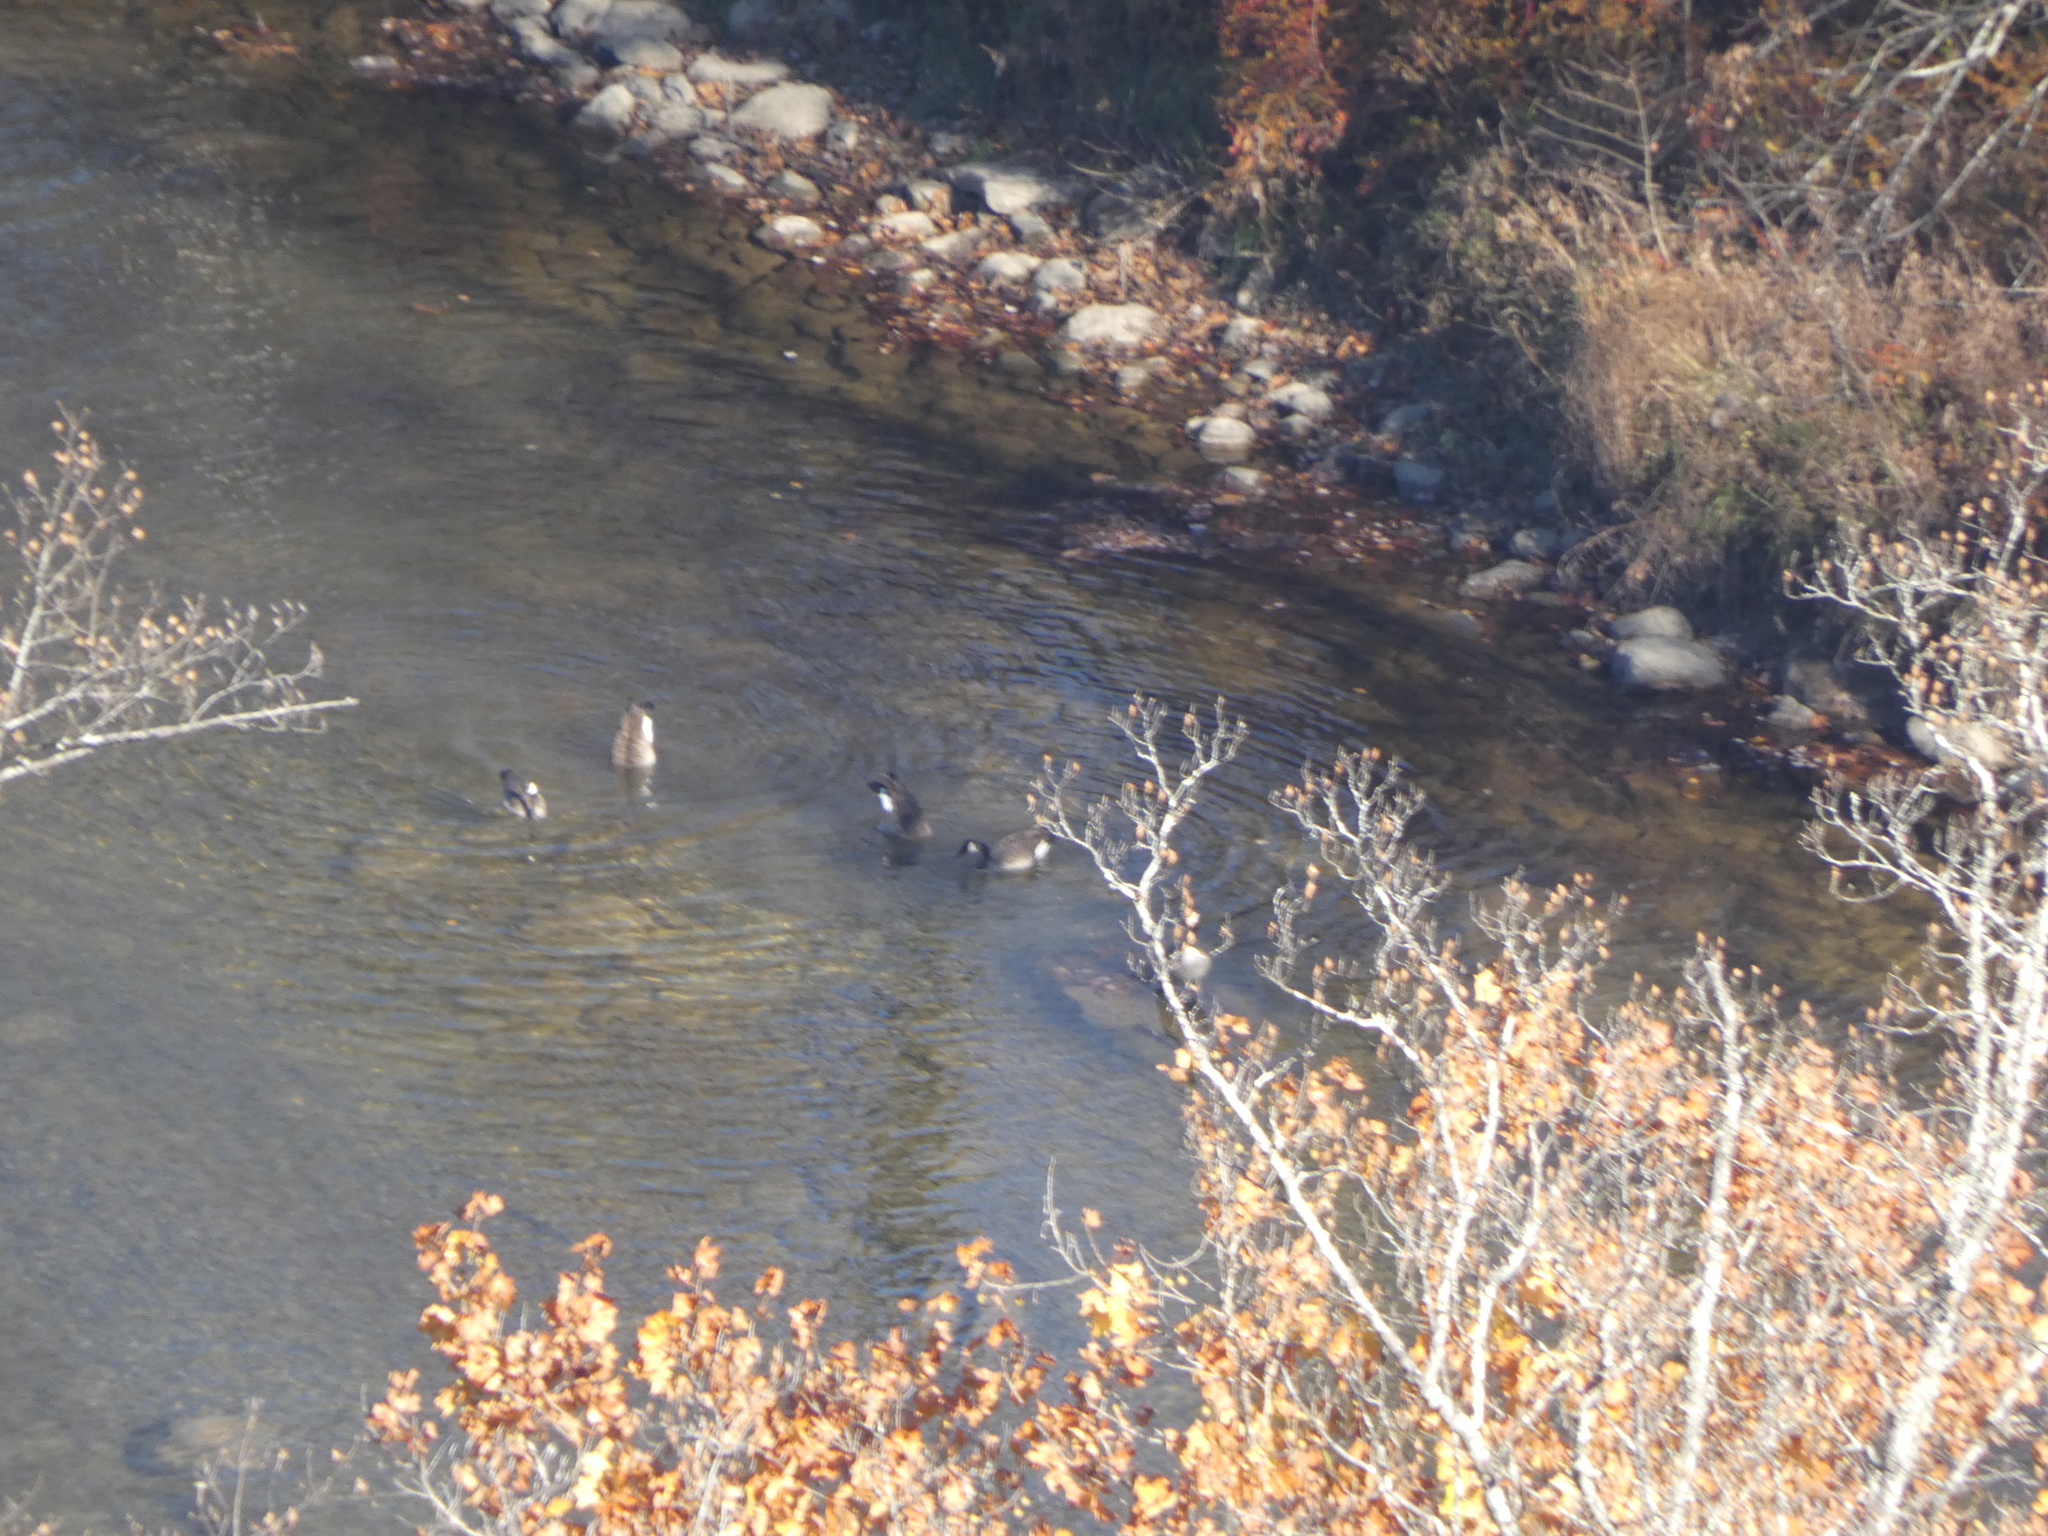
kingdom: Animalia
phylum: Chordata
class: Aves
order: Anseriformes
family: Anatidae
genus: Branta
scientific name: Branta canadensis
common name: Canada goose
